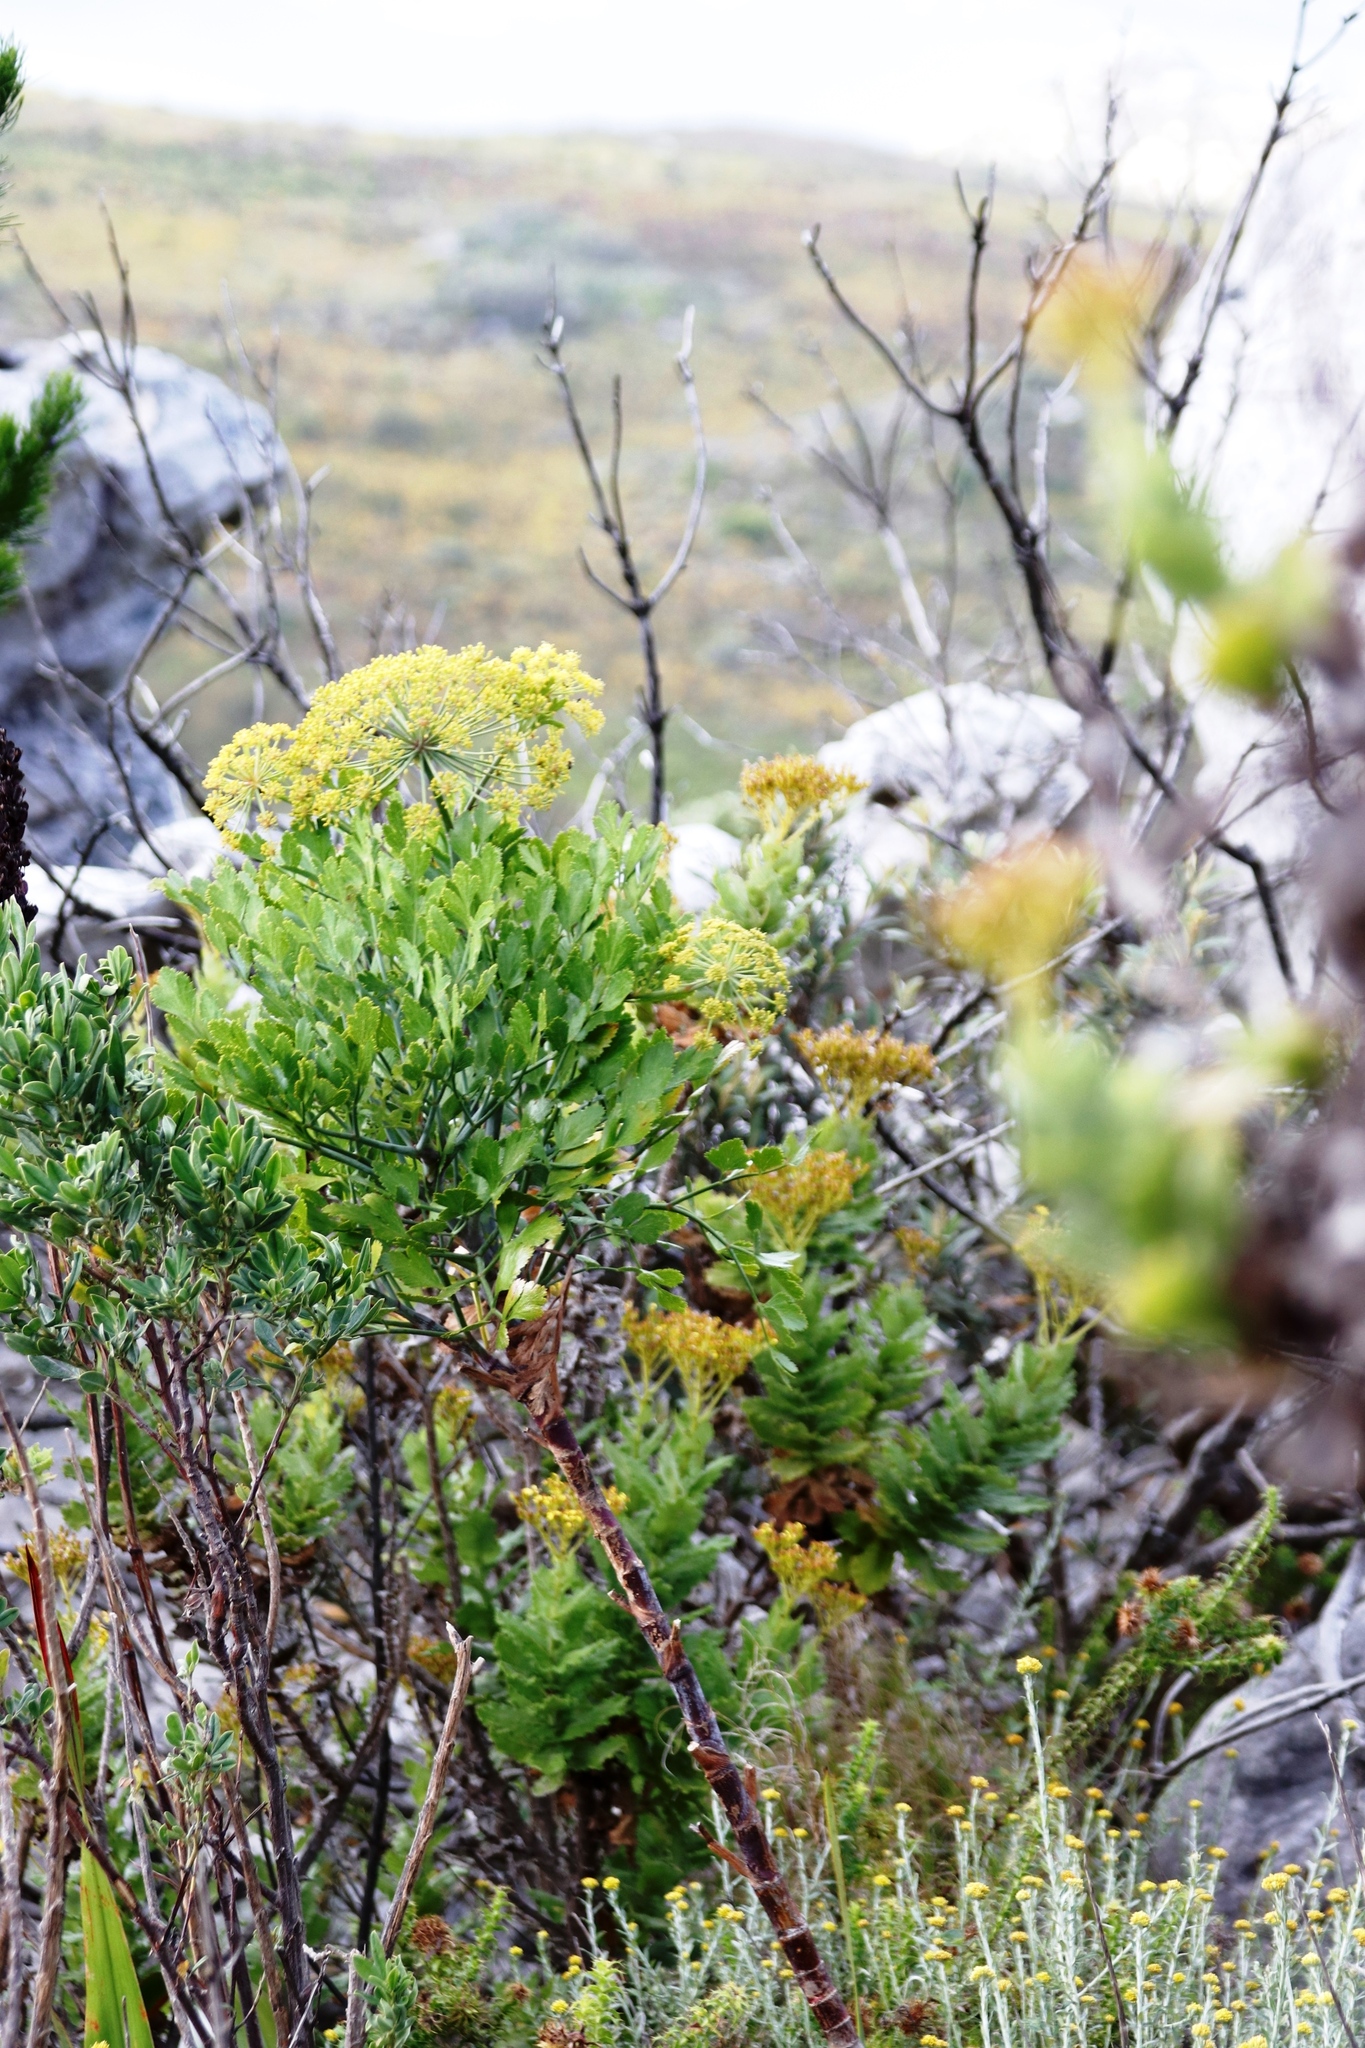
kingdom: Plantae
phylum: Tracheophyta
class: Magnoliopsida
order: Apiales
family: Apiaceae
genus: Notobubon
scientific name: Notobubon galbanum
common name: Blisterbush
